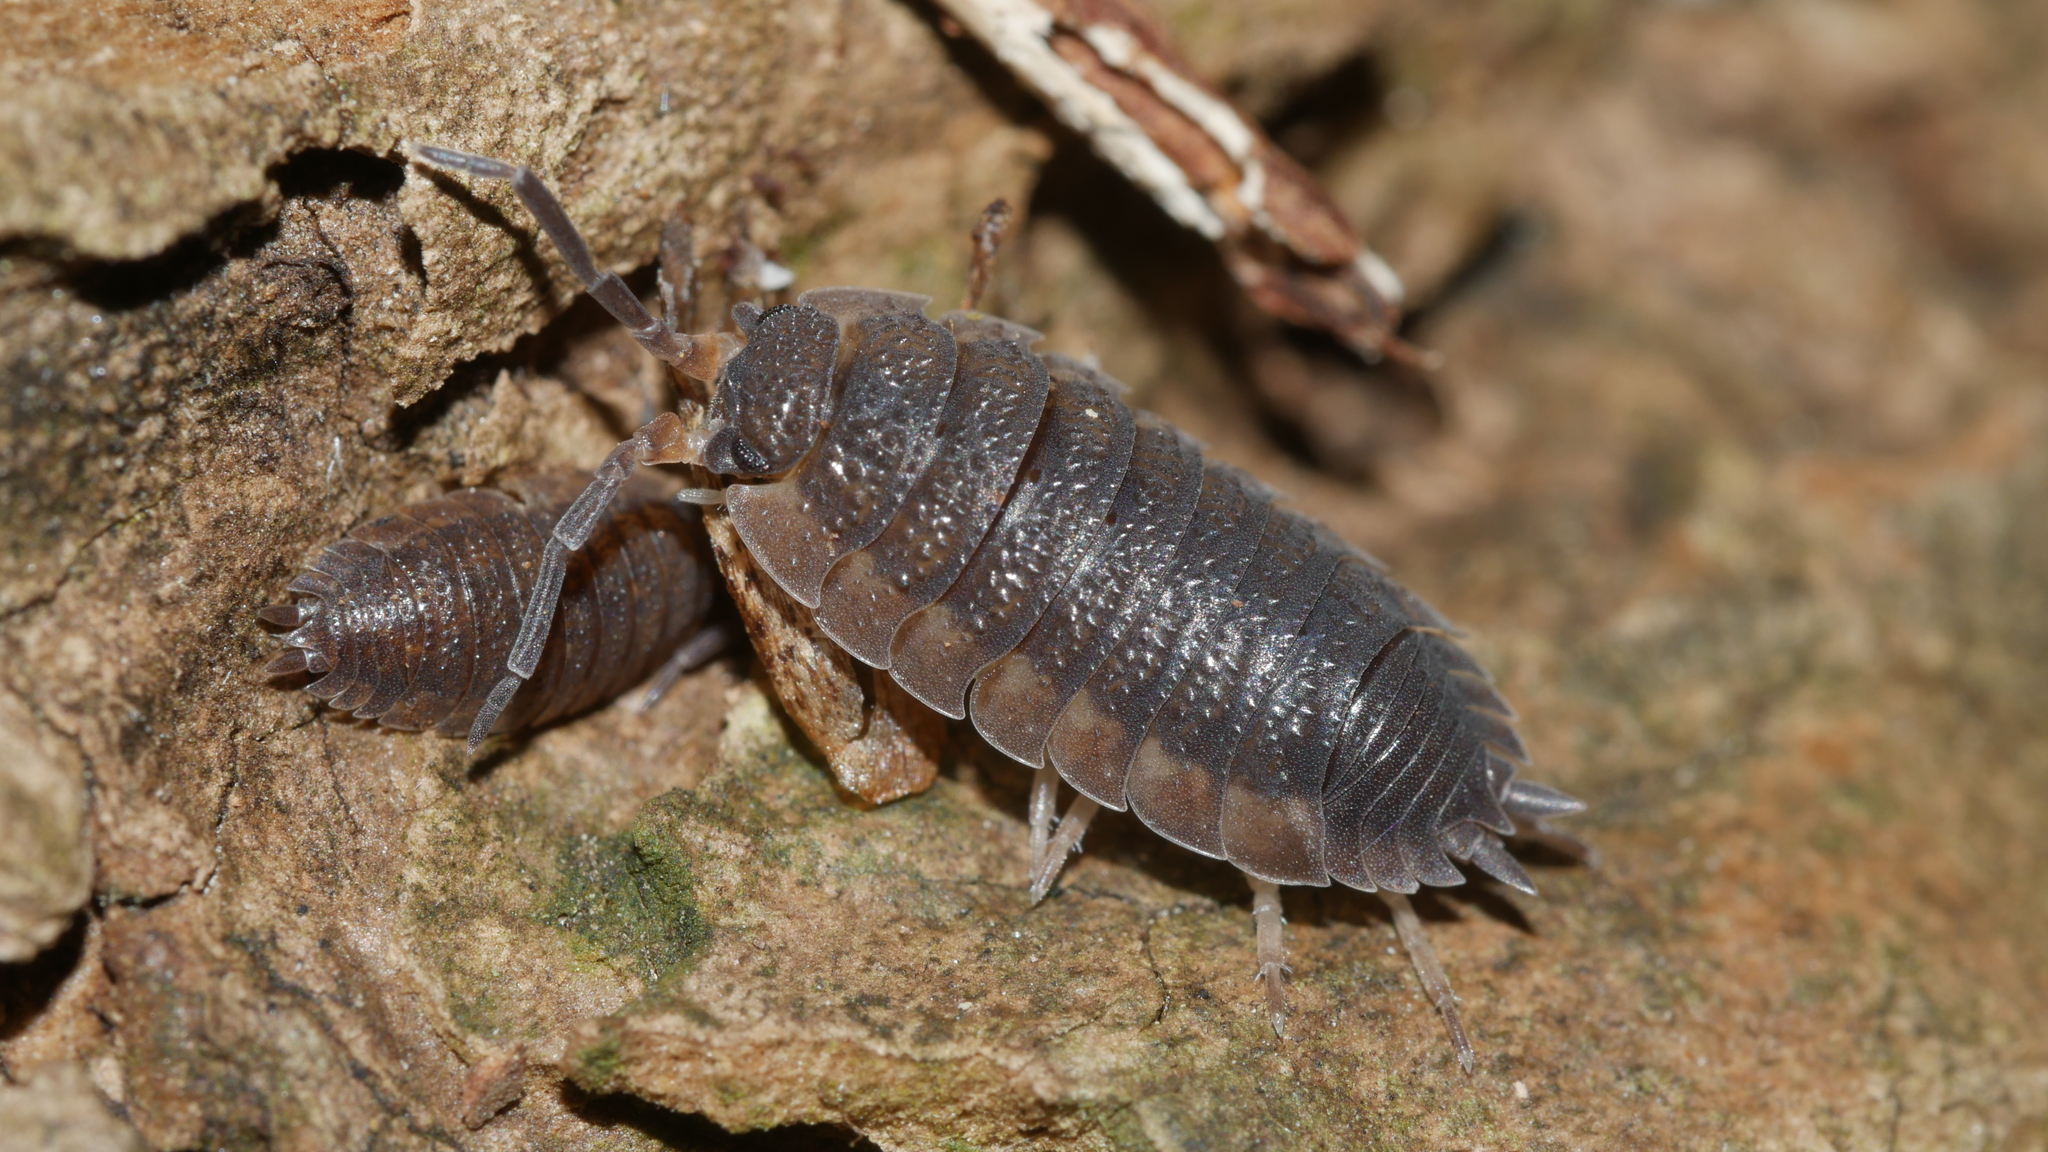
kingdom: Animalia
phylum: Arthropoda
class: Malacostraca
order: Isopoda
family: Porcellionidae
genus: Porcellio
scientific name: Porcellio scaber
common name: Common rough woodlouse
